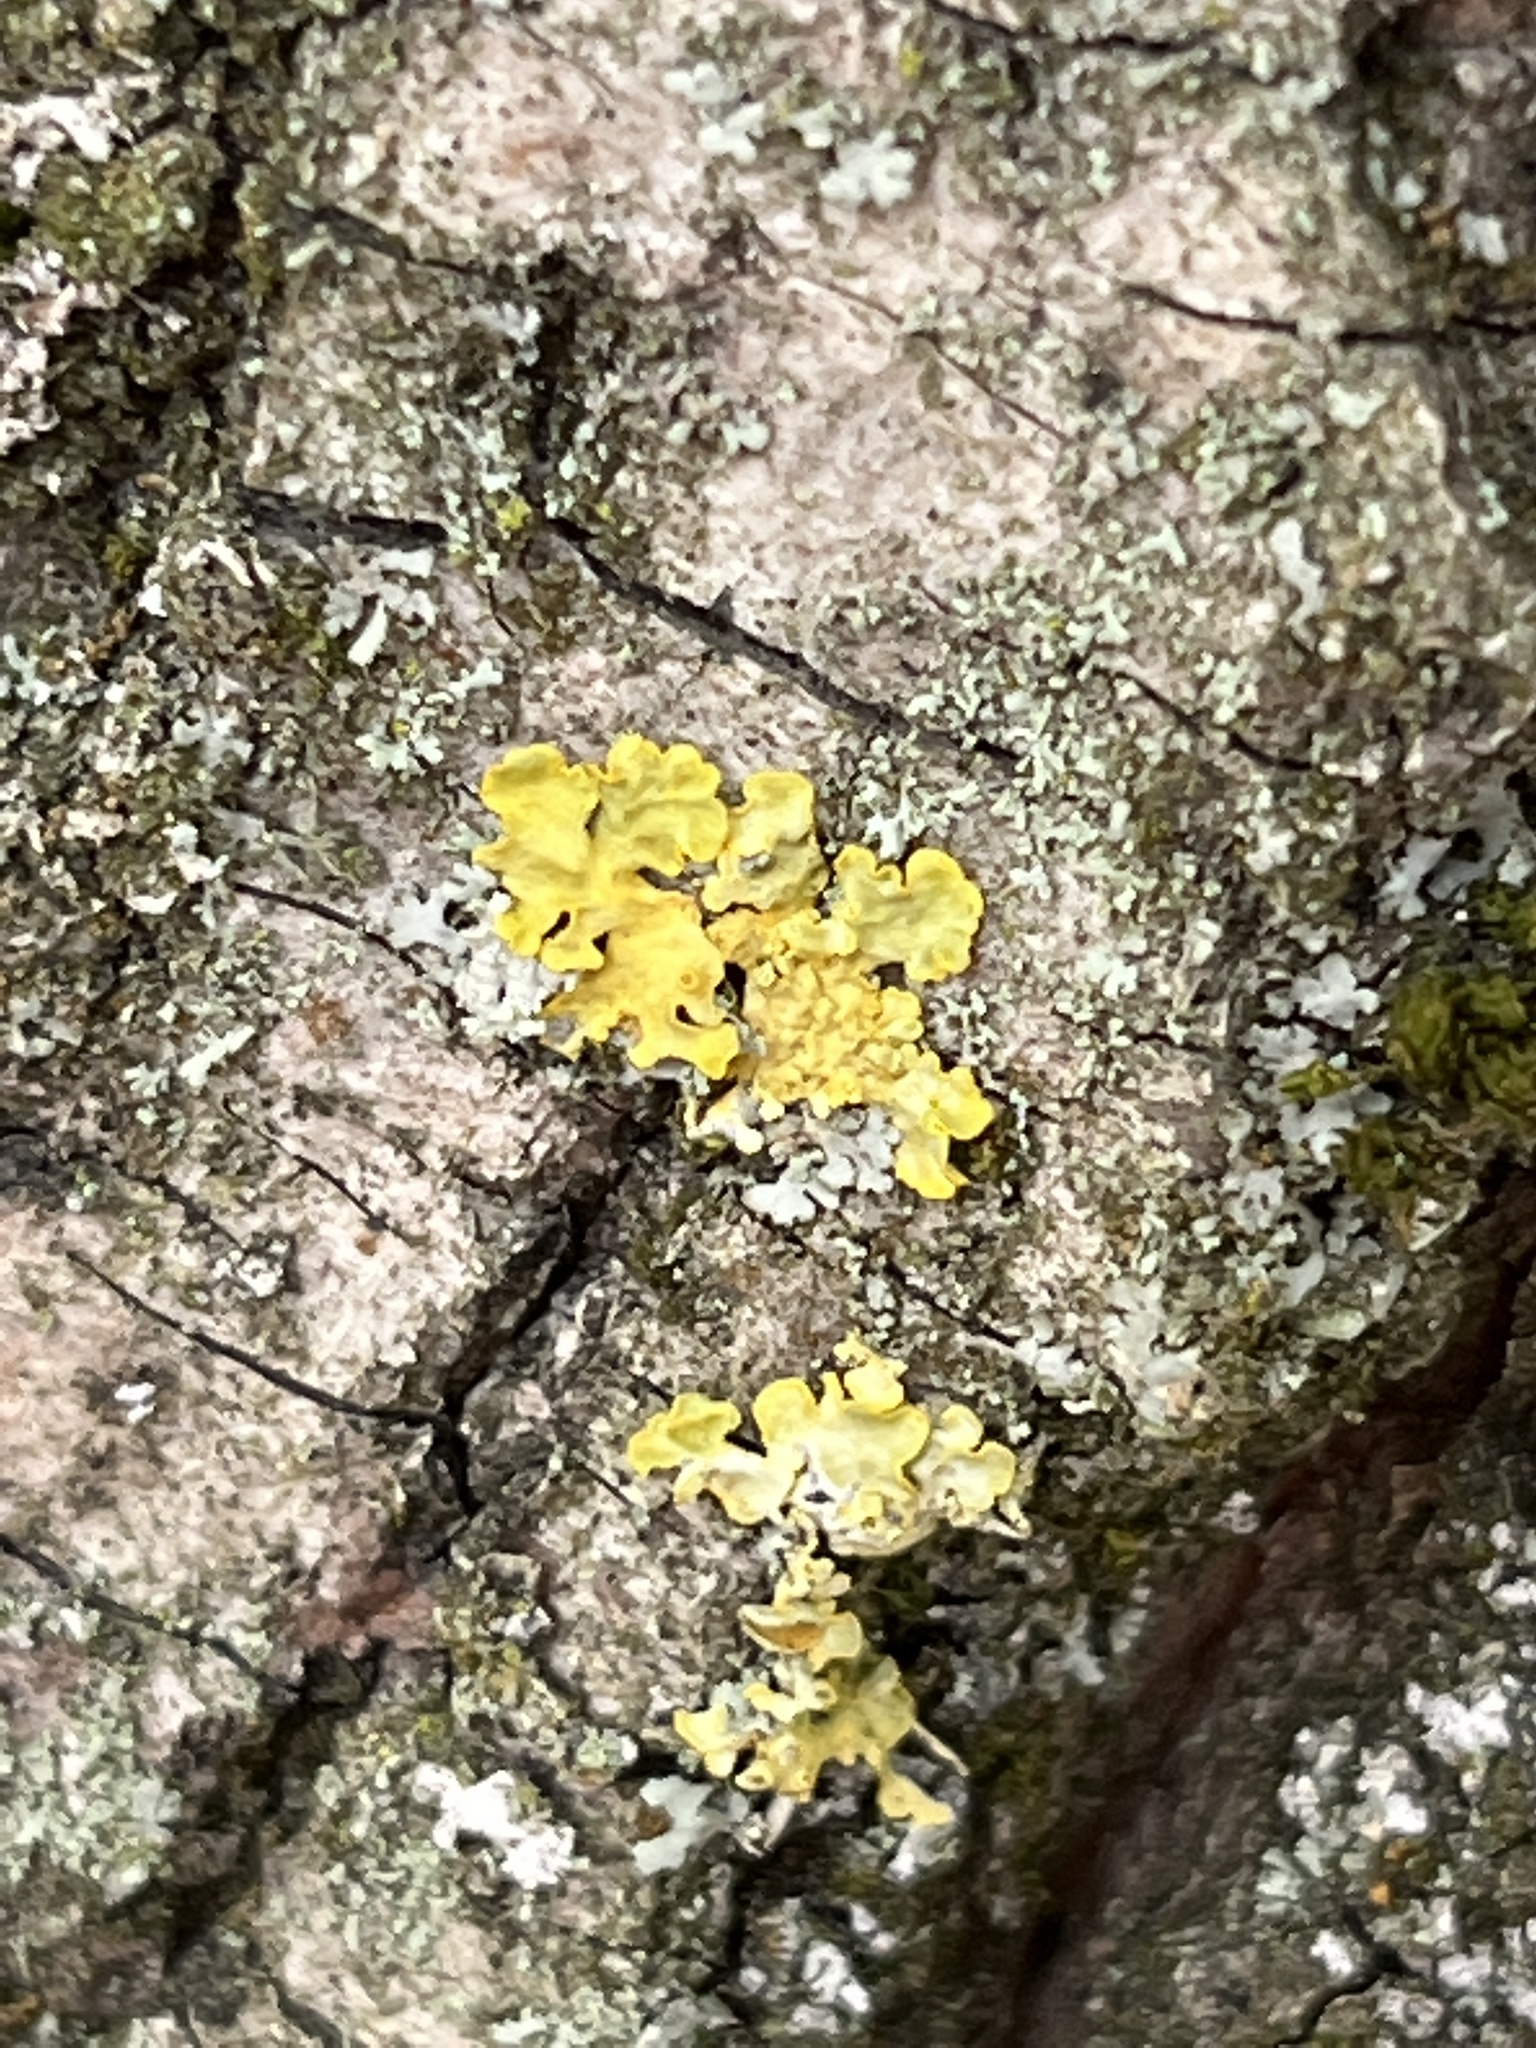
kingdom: Fungi
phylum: Ascomycota
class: Lecanoromycetes
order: Teloschistales
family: Teloschistaceae
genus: Xanthoria
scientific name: Xanthoria parietina
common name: Common orange lichen
